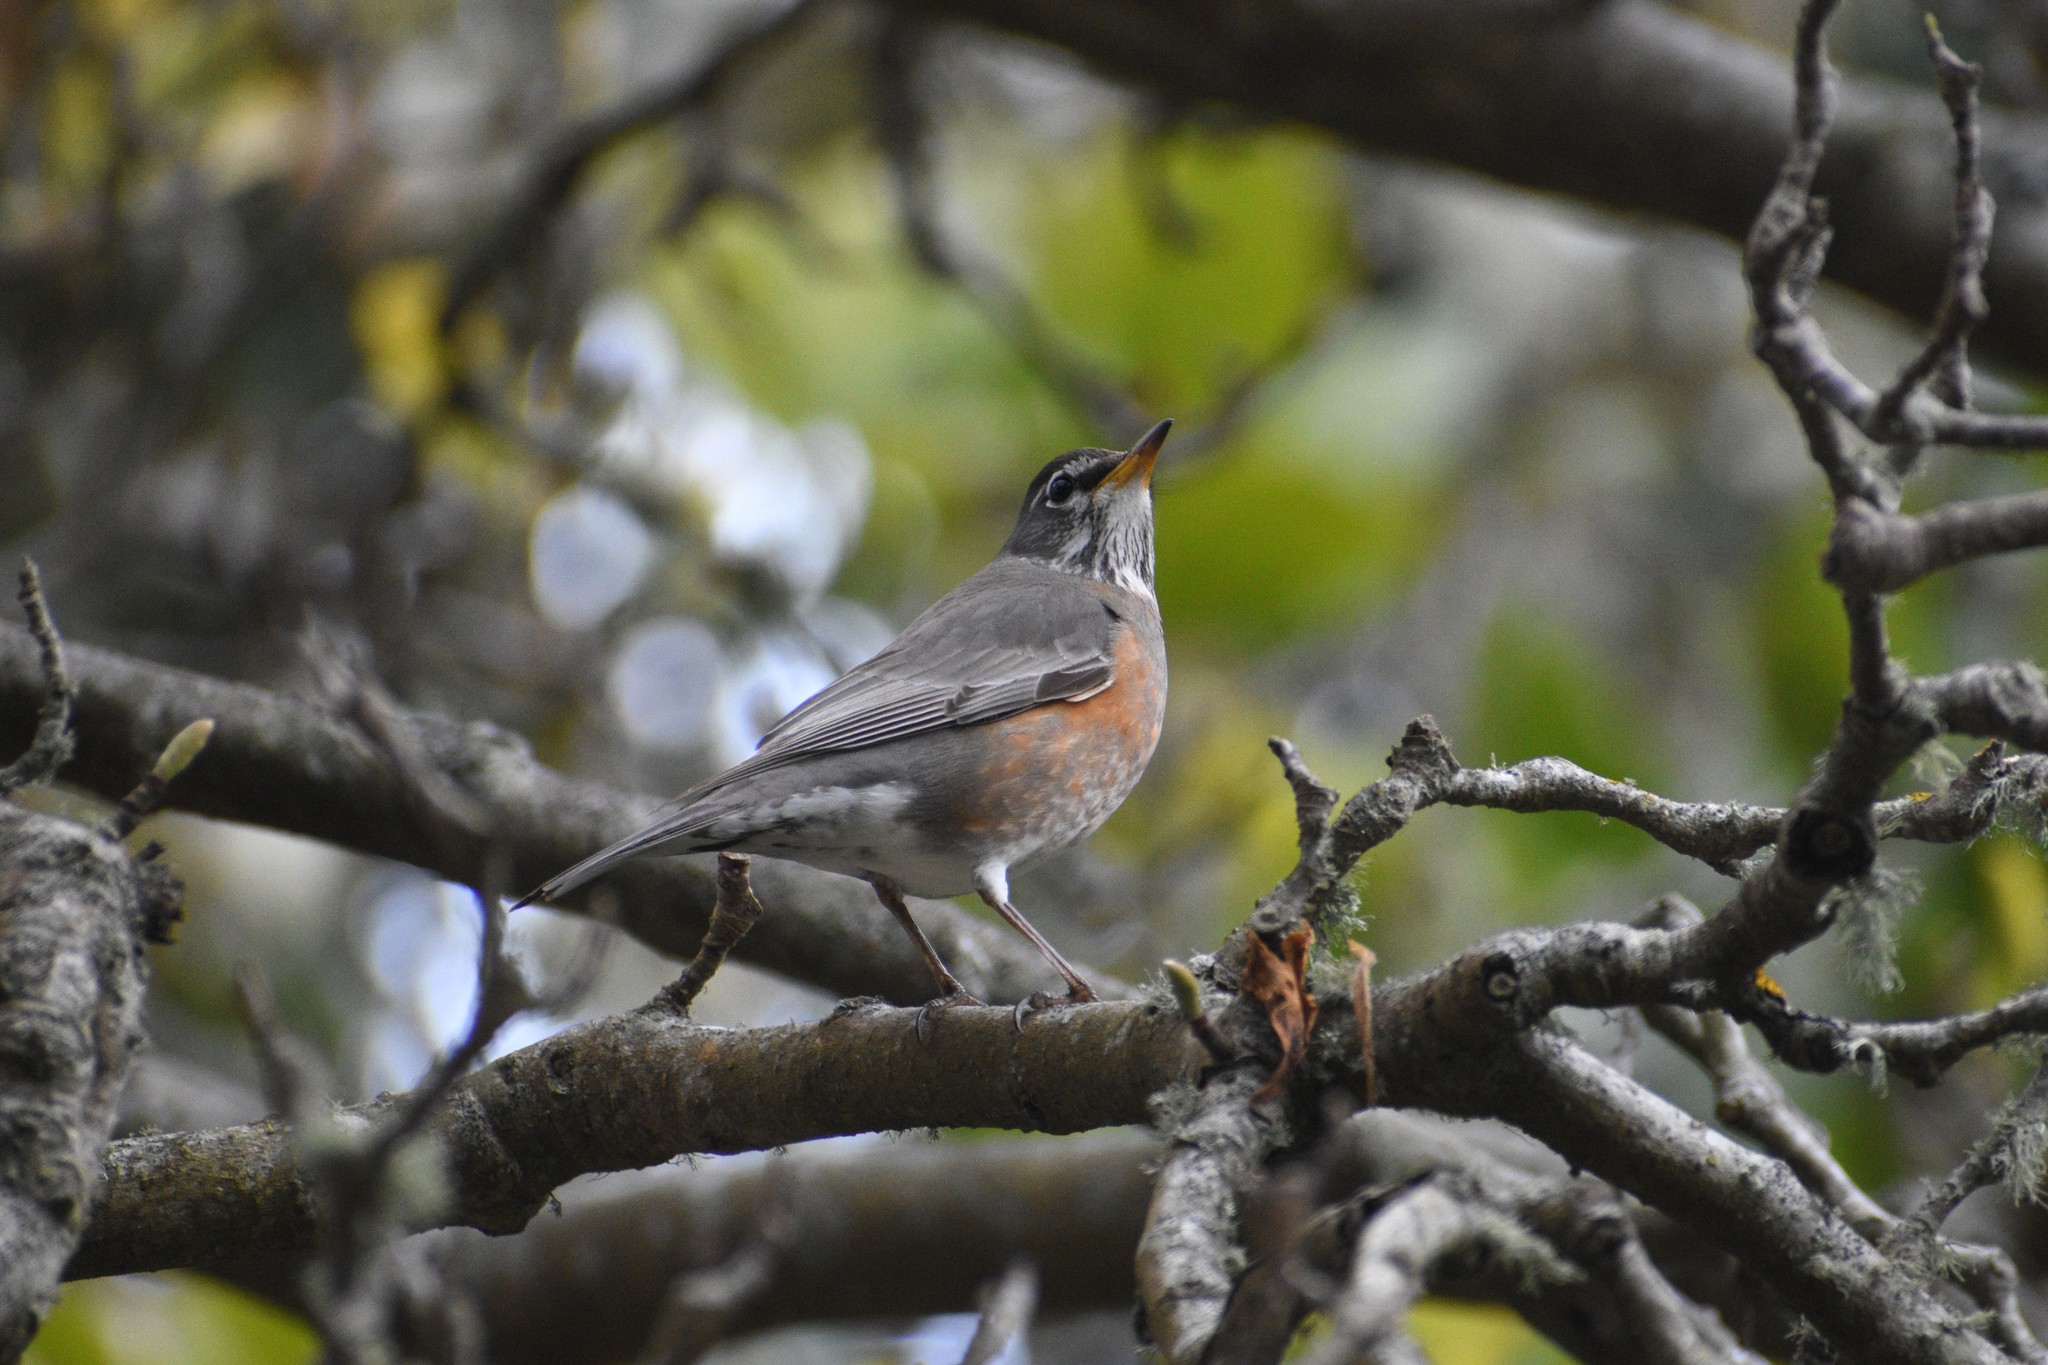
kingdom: Animalia
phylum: Chordata
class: Aves
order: Passeriformes
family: Turdidae
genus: Turdus
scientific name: Turdus migratorius
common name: American robin
